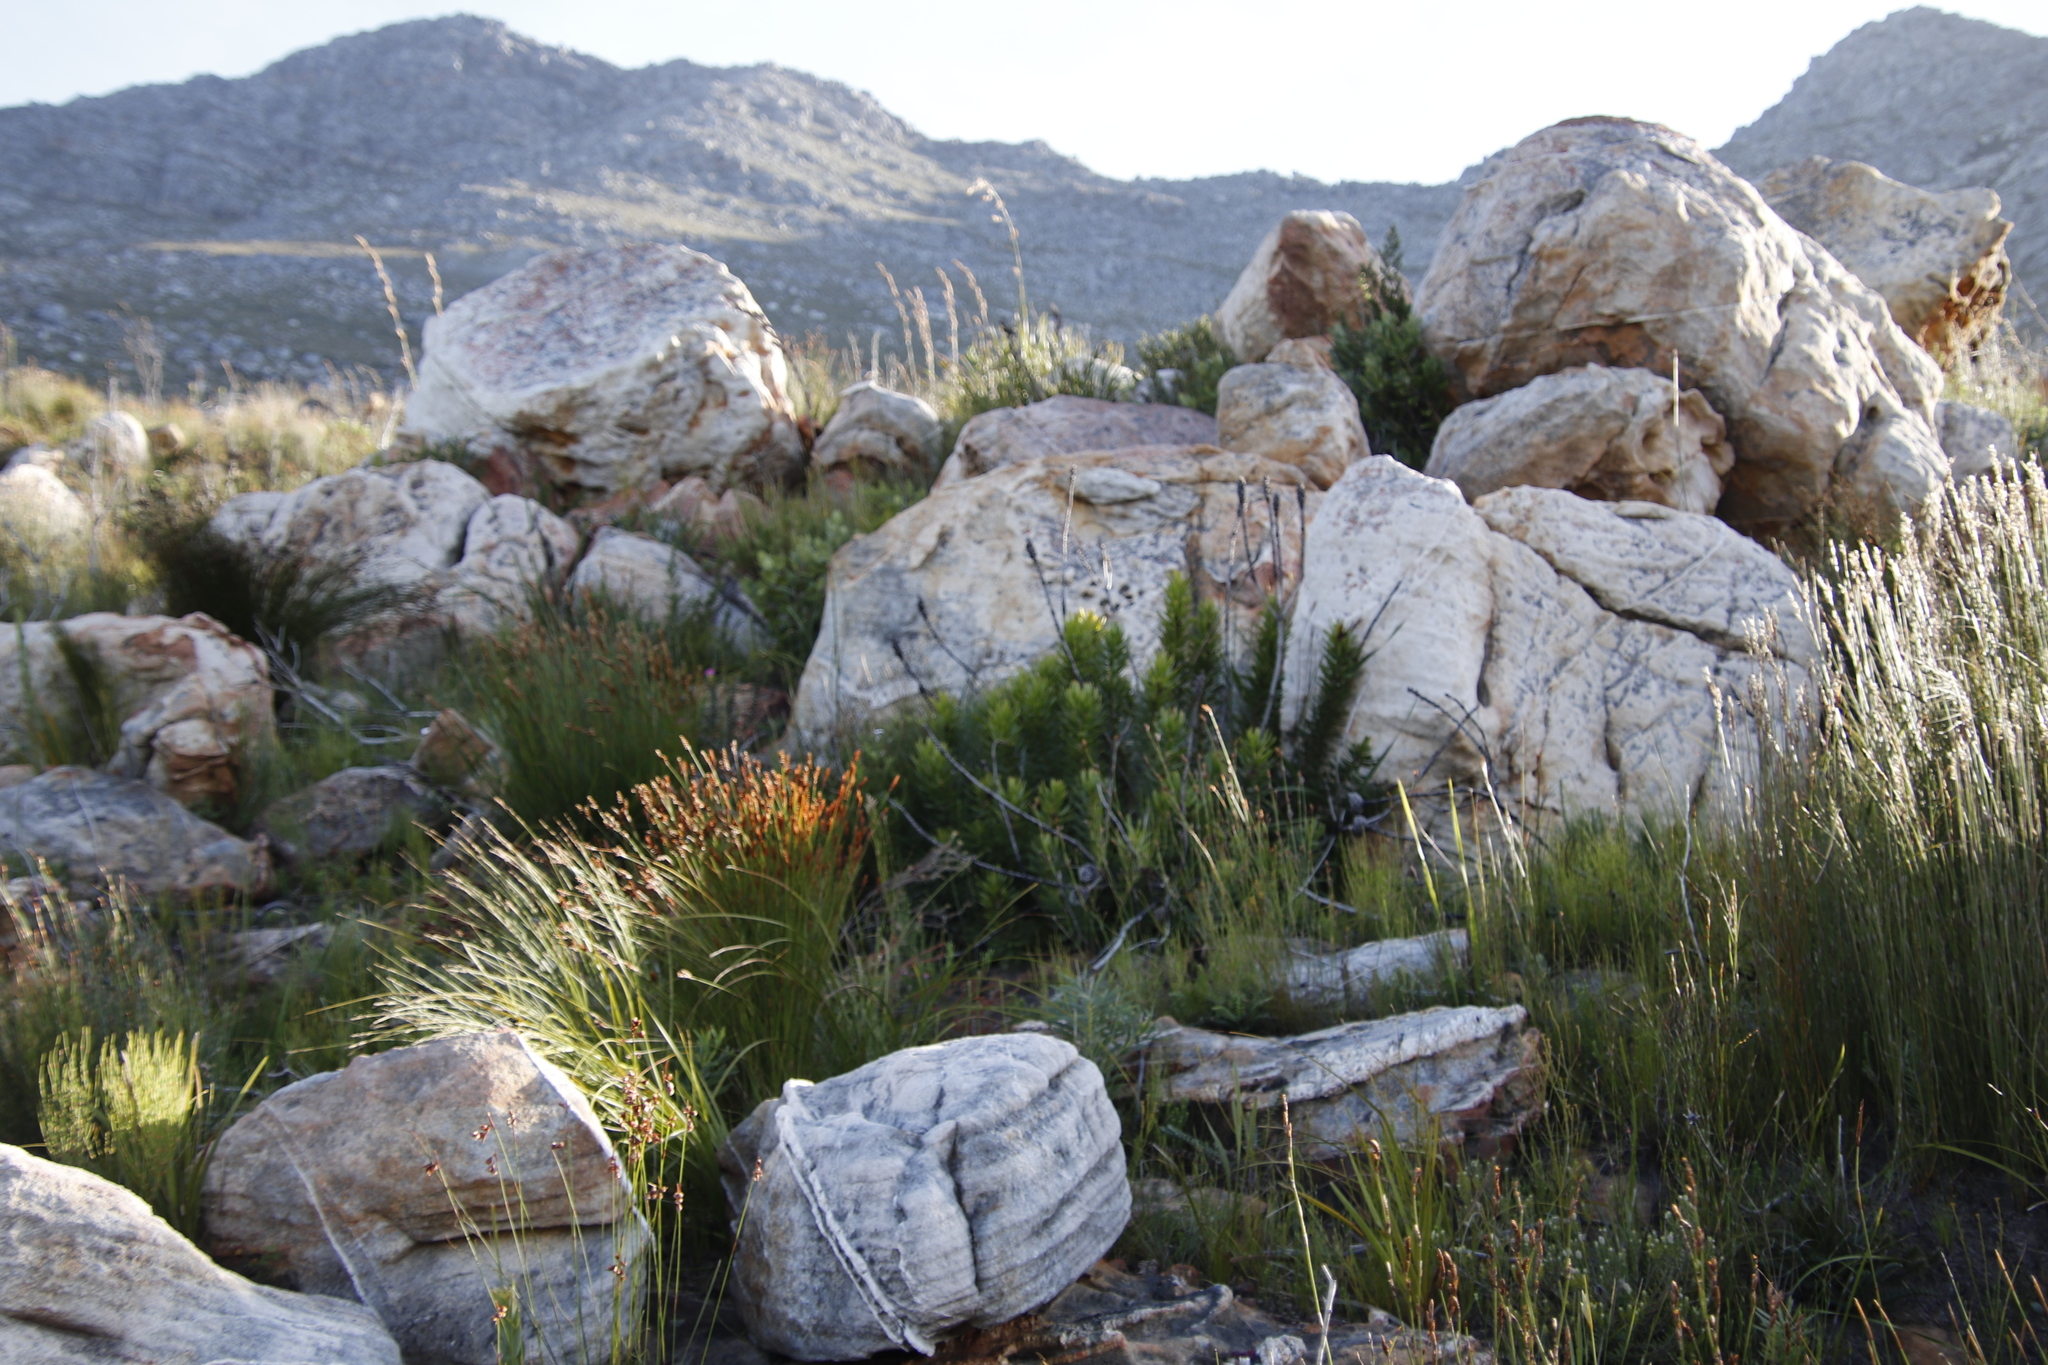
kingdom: Plantae
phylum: Tracheophyta
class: Magnoliopsida
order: Proteales
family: Proteaceae
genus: Mimetes
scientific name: Mimetes cucullatus
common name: Common pagoda
